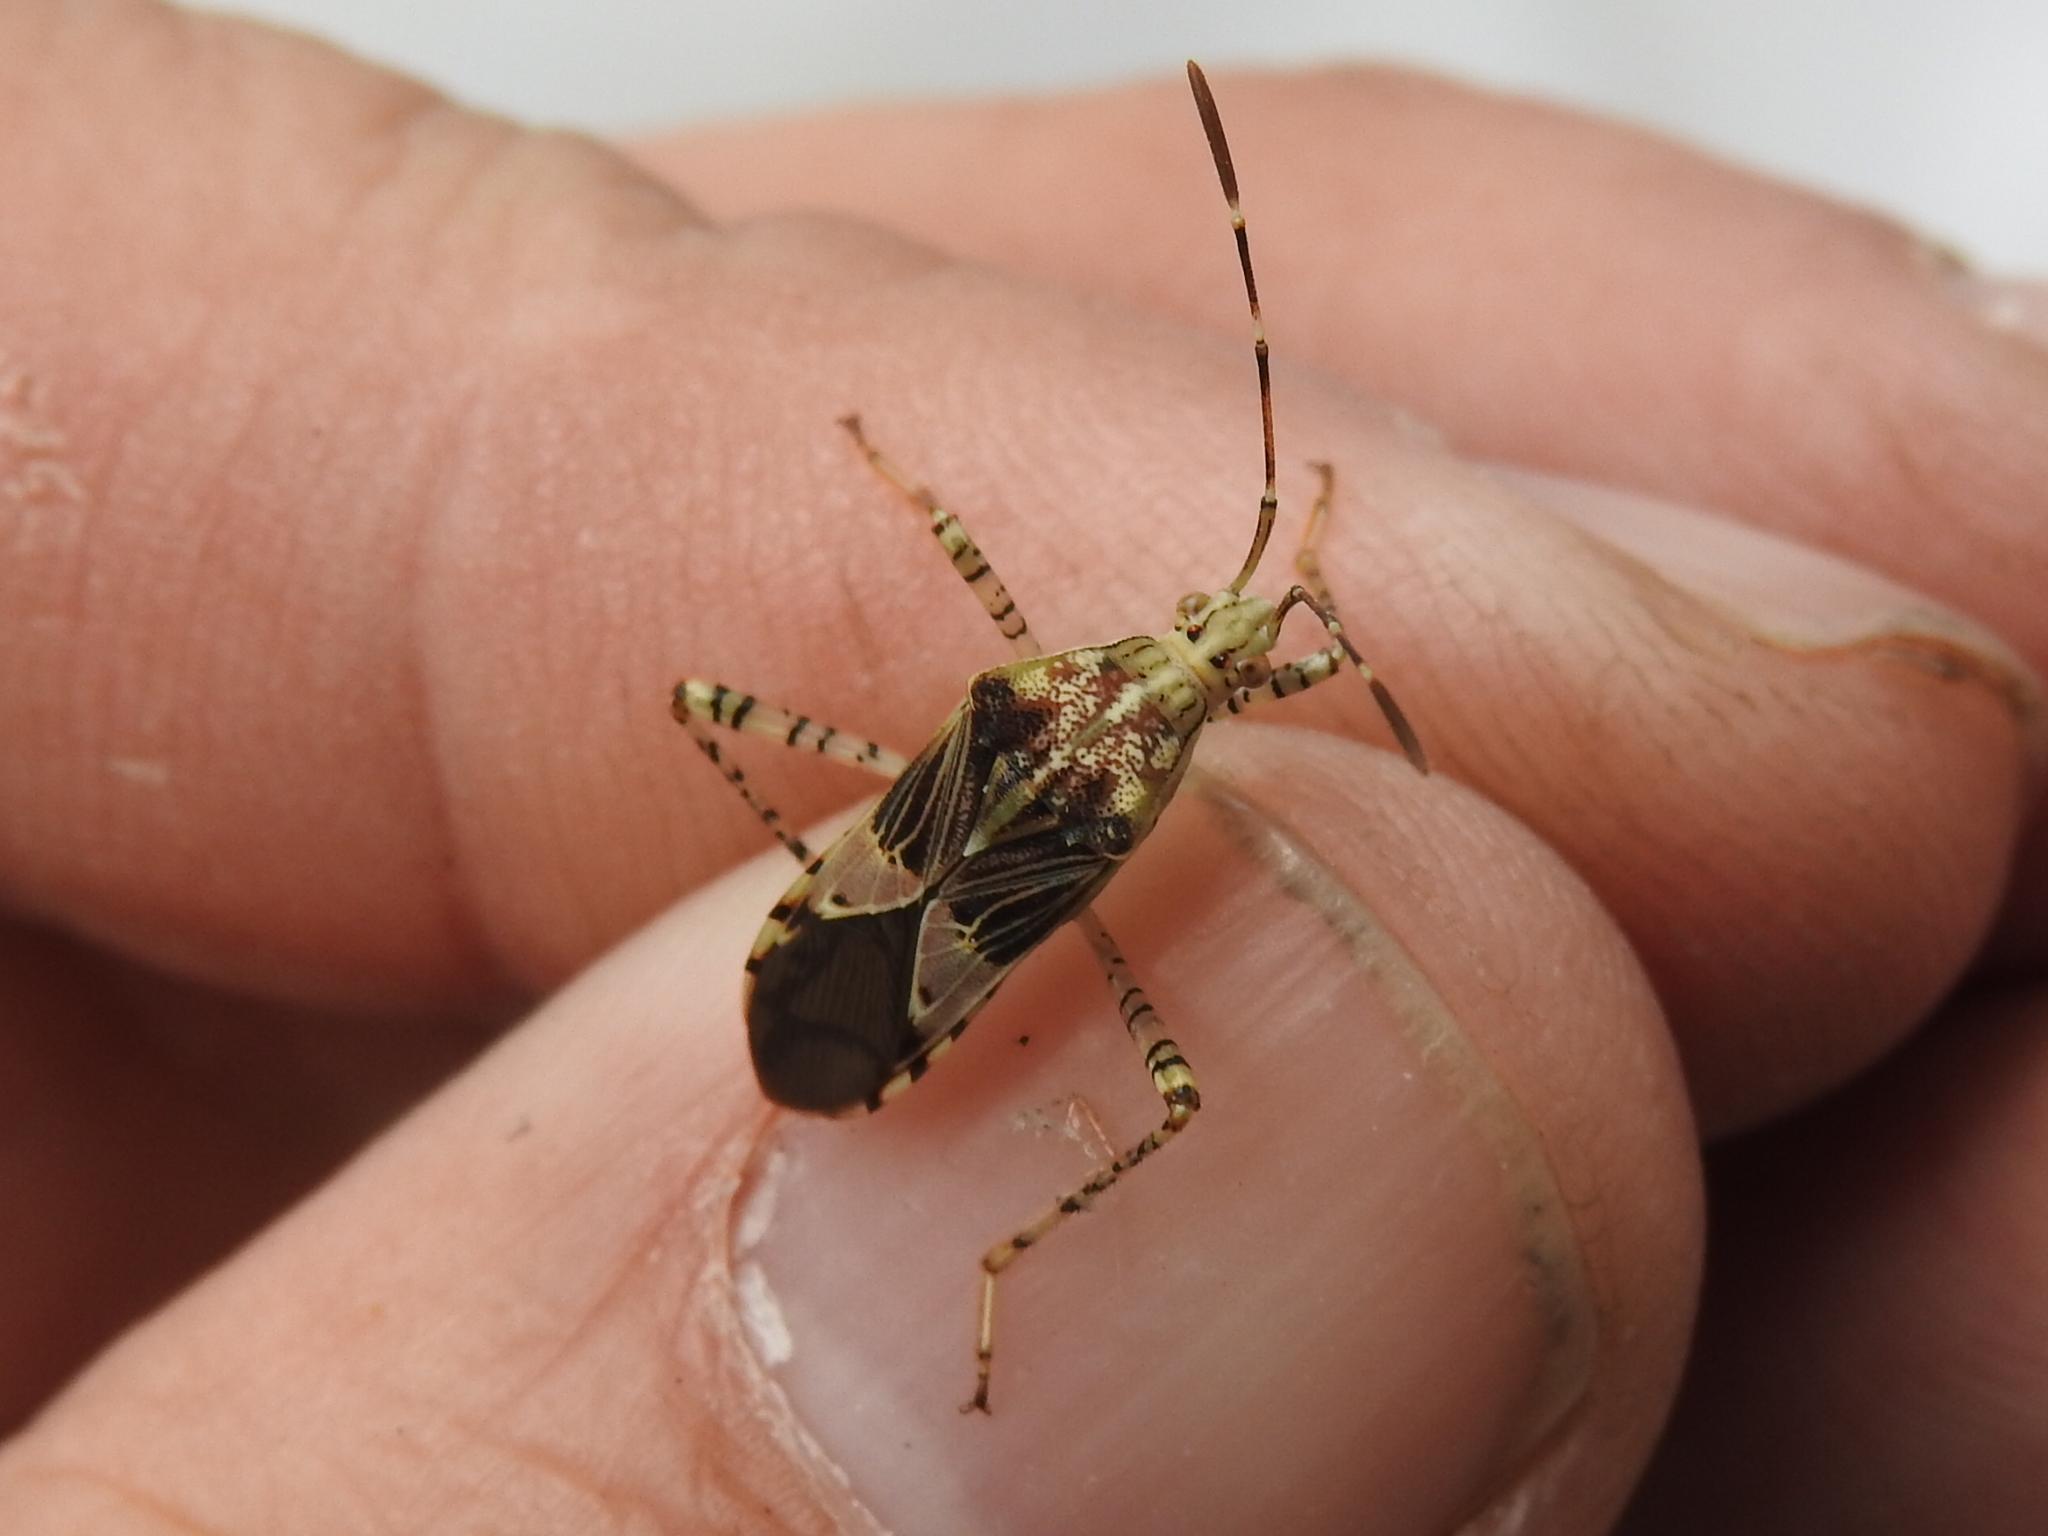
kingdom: Animalia
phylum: Arthropoda
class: Insecta
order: Hemiptera
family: Coreidae
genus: Hypselonotus
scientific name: Hypselonotus punctiventris
